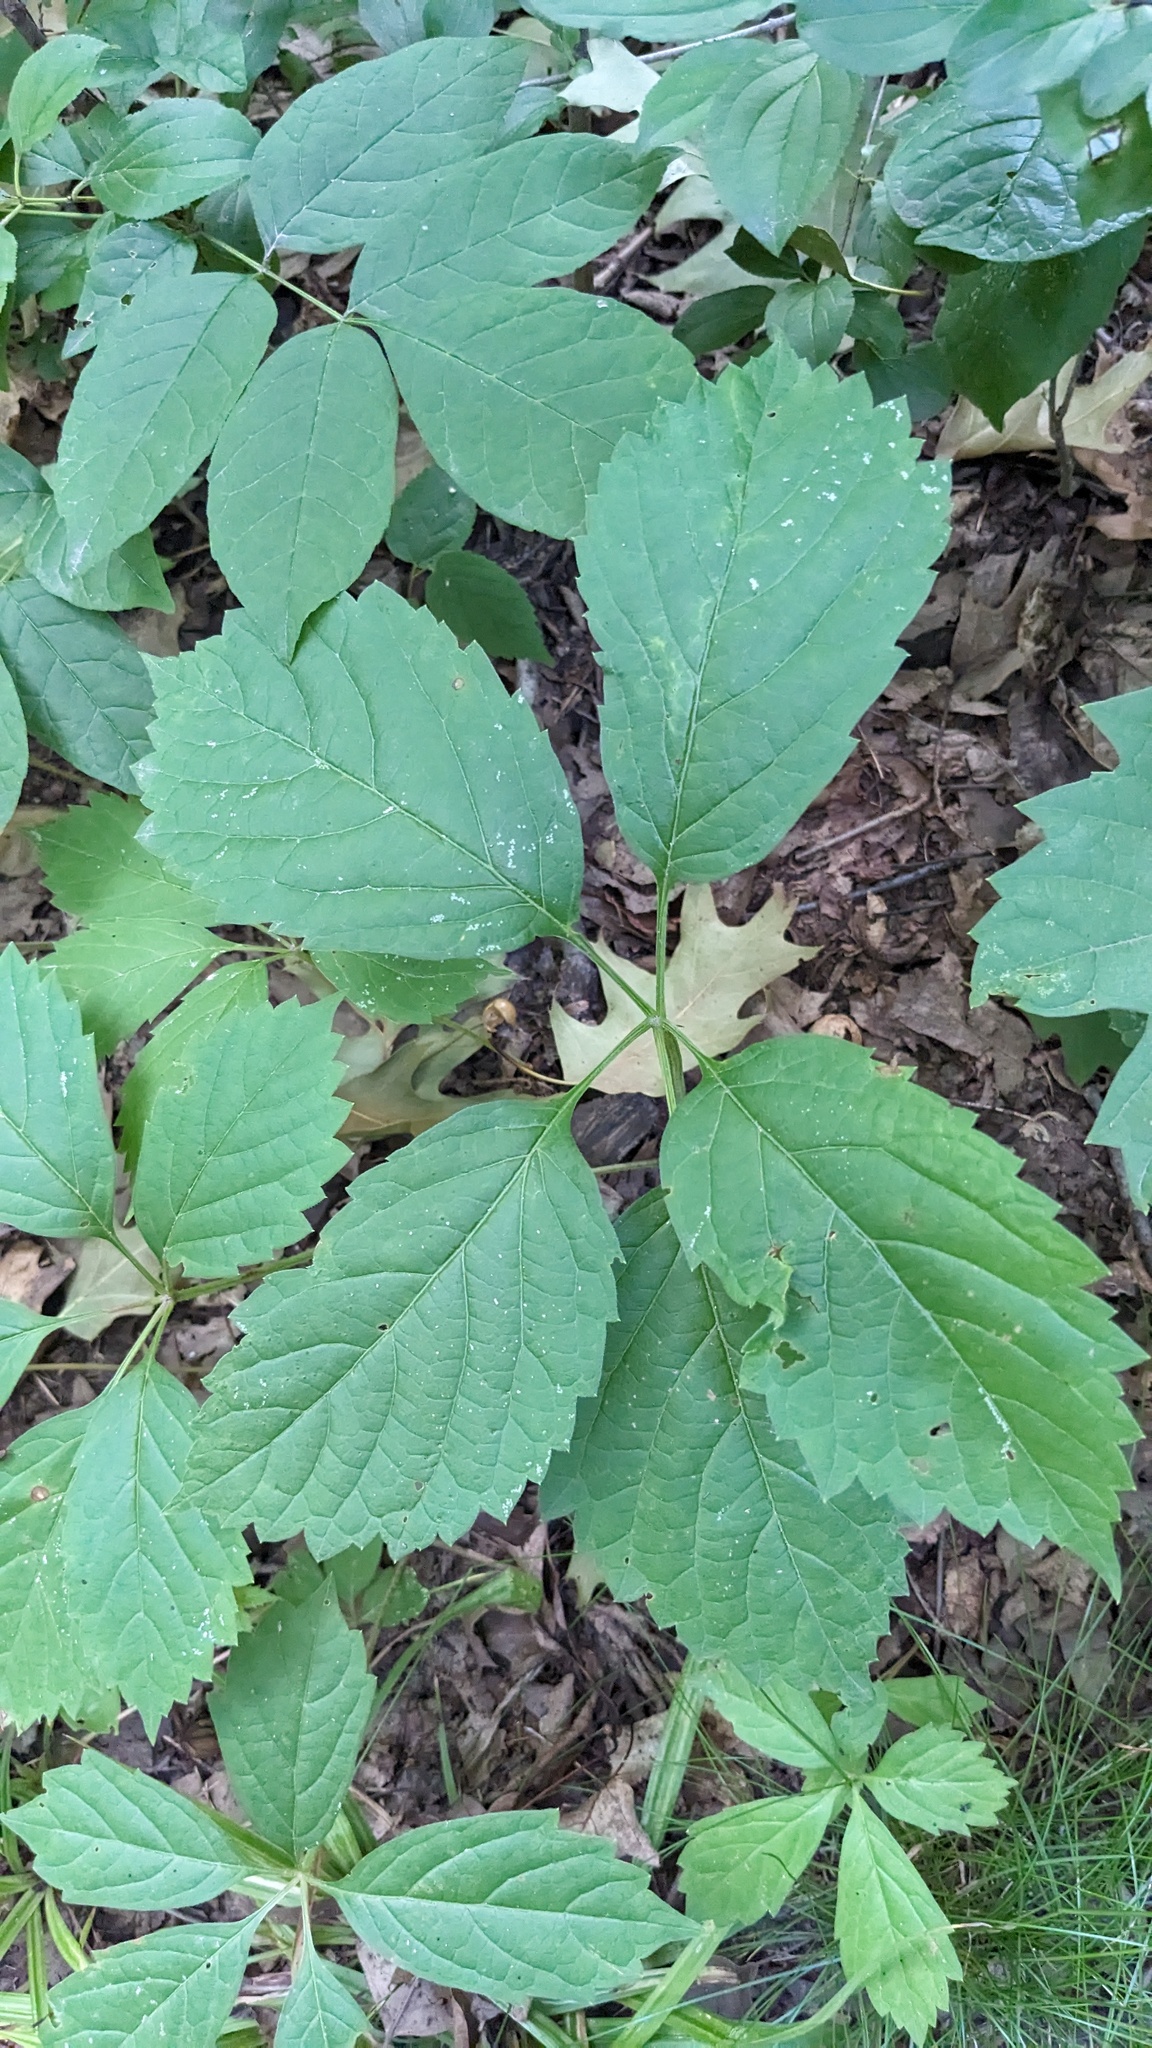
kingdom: Plantae
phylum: Tracheophyta
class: Magnoliopsida
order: Vitales
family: Vitaceae
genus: Parthenocissus
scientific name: Parthenocissus inserta
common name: False virginia-creeper
